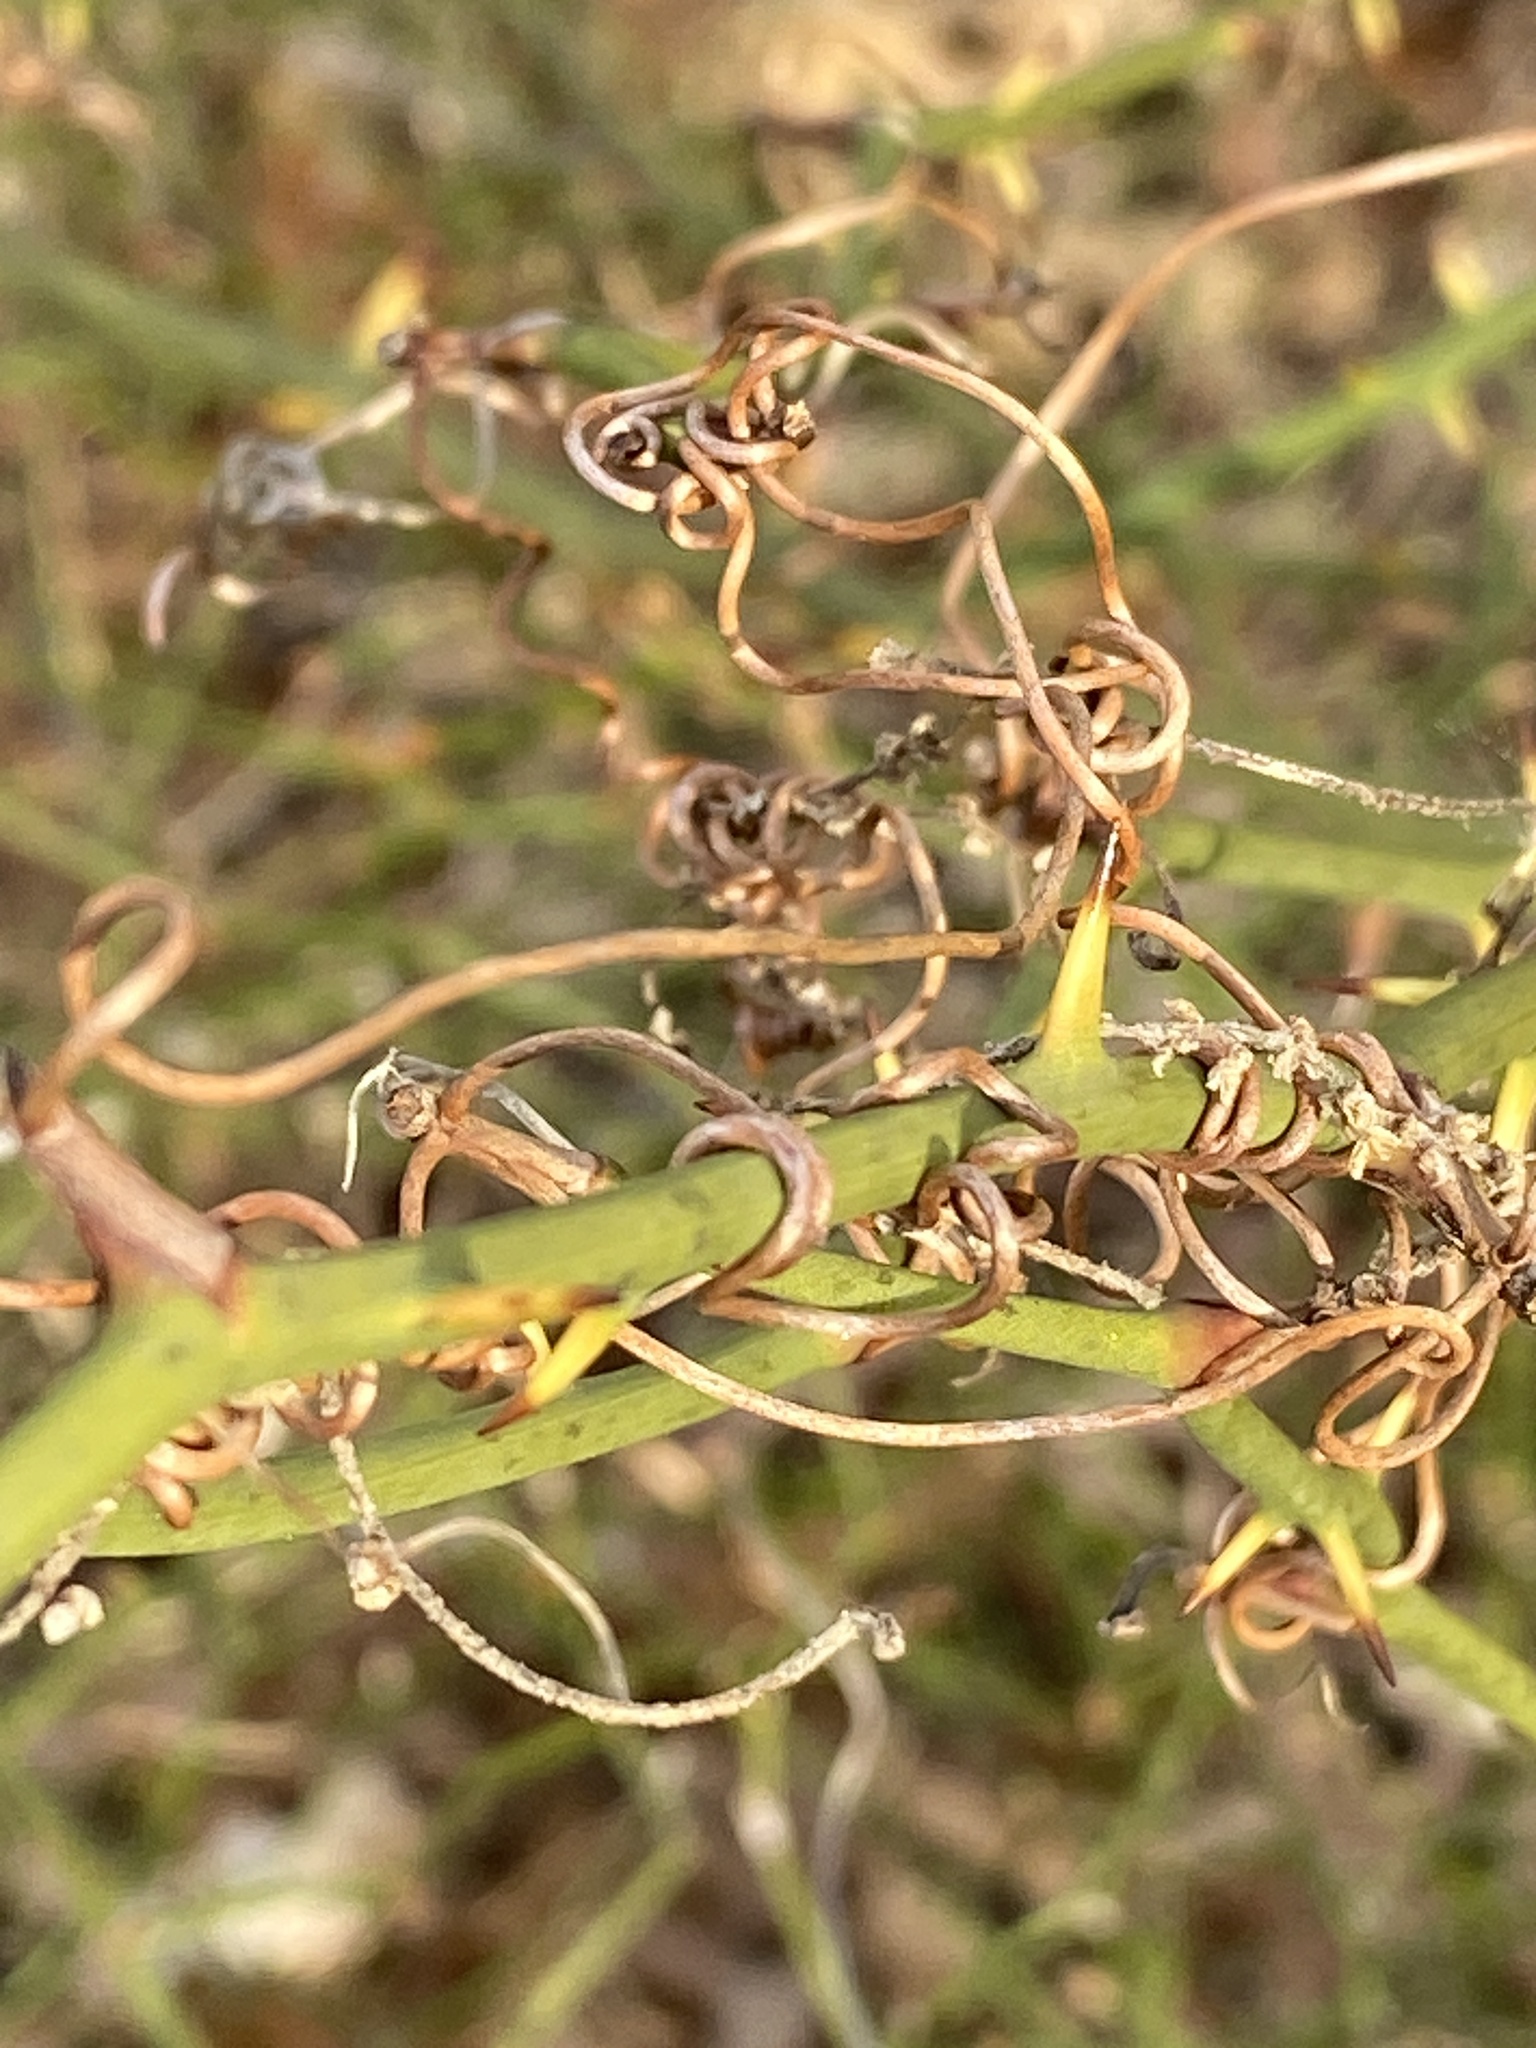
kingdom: Plantae
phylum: Tracheophyta
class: Liliopsida
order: Liliales
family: Smilacaceae
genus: Smilax
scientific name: Smilax rotundifolia
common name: Bullbriar
